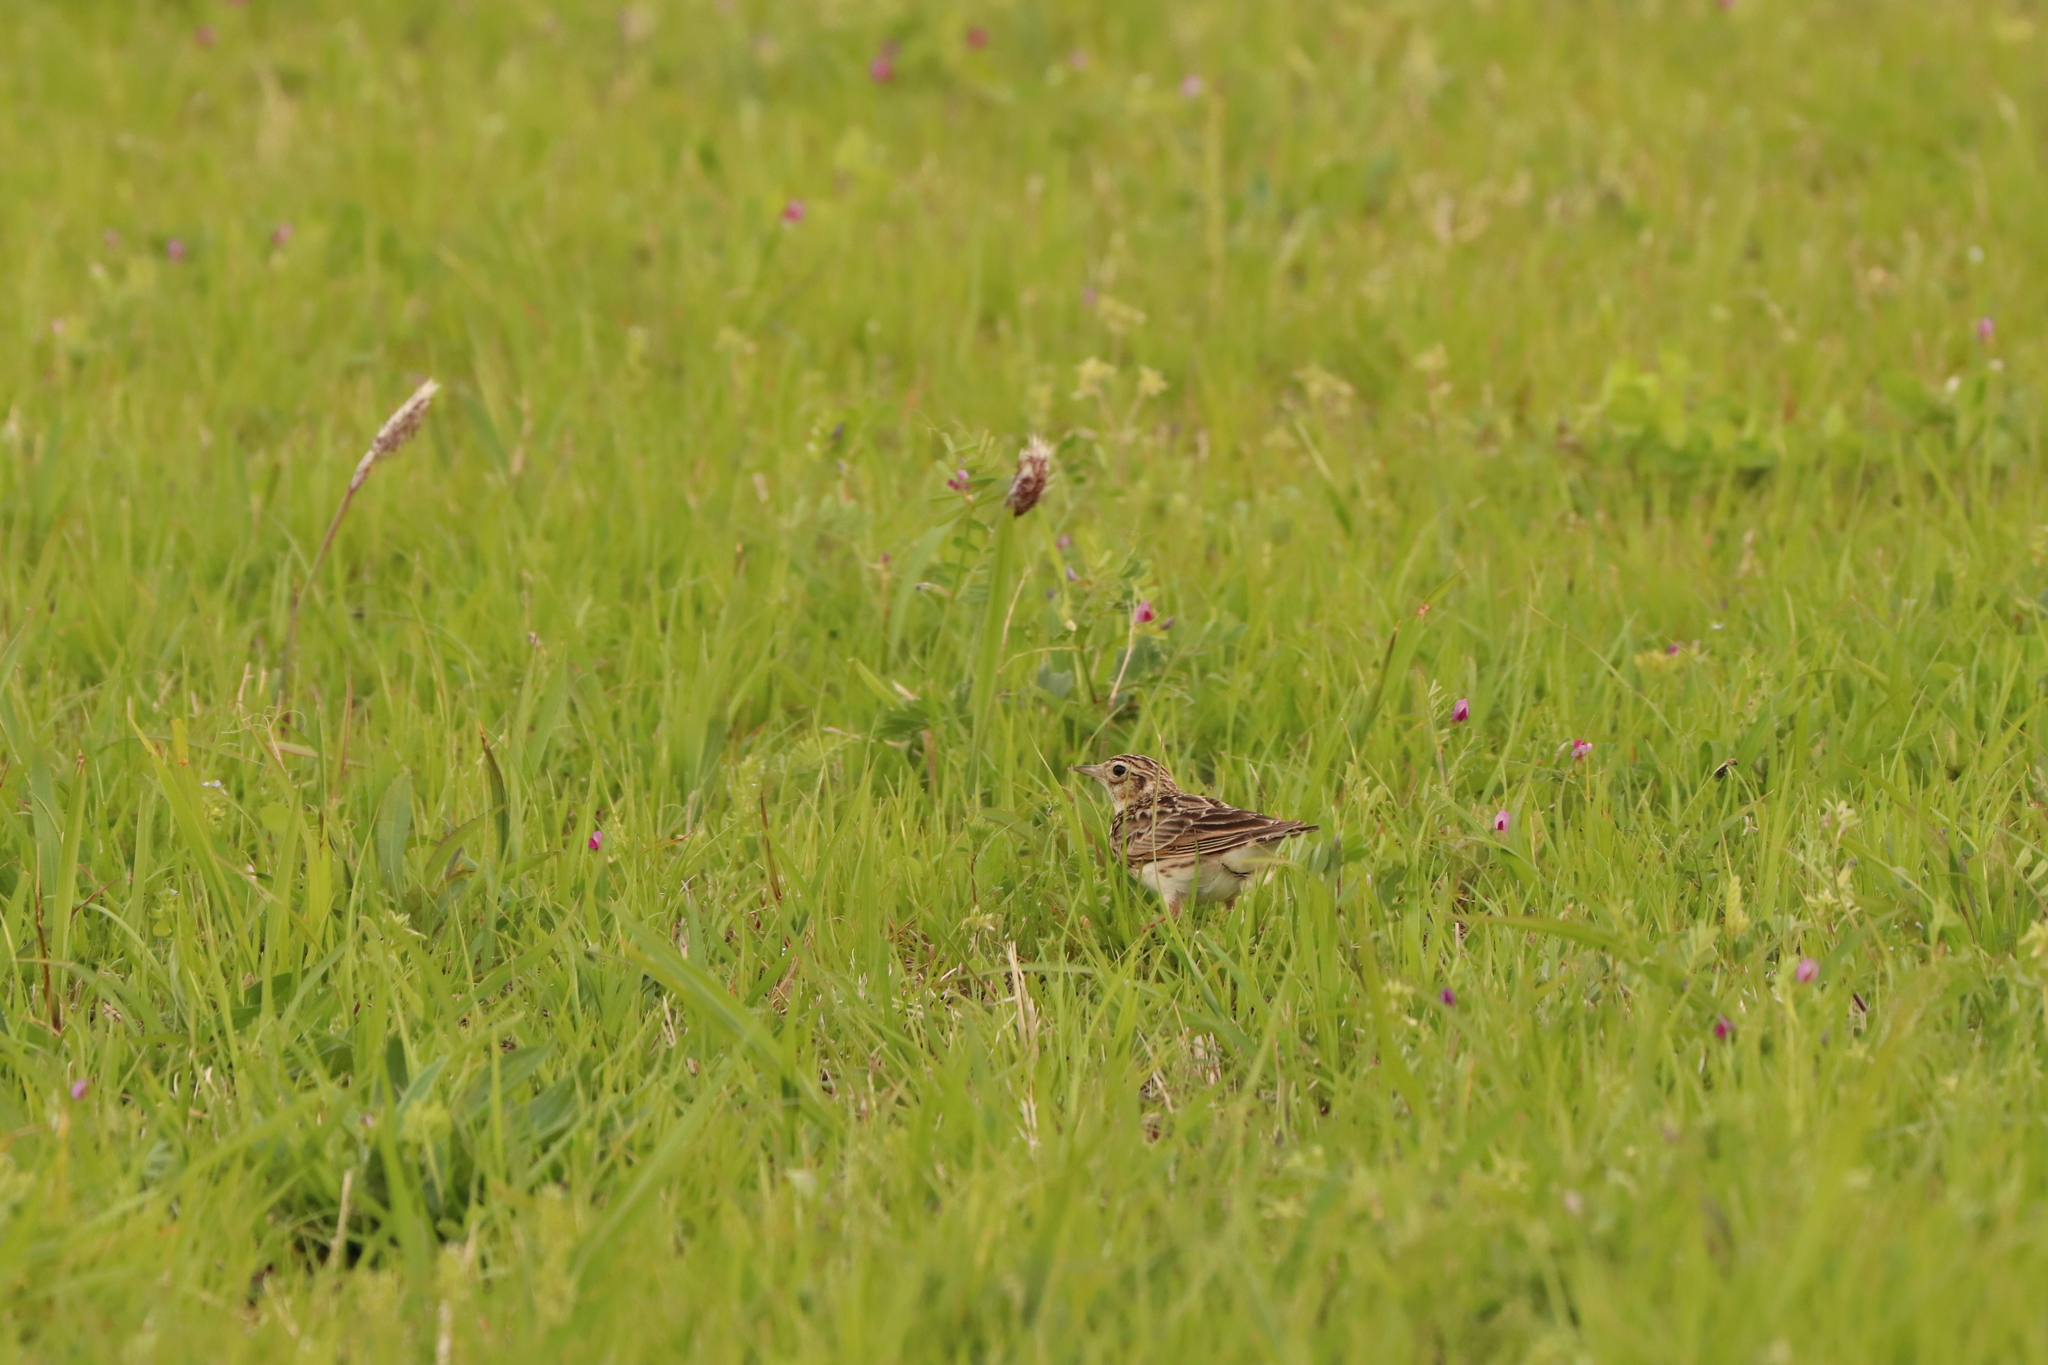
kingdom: Animalia
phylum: Chordata
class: Aves
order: Passeriformes
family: Alaudidae
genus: Alauda
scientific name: Alauda arvensis
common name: Eurasian skylark
